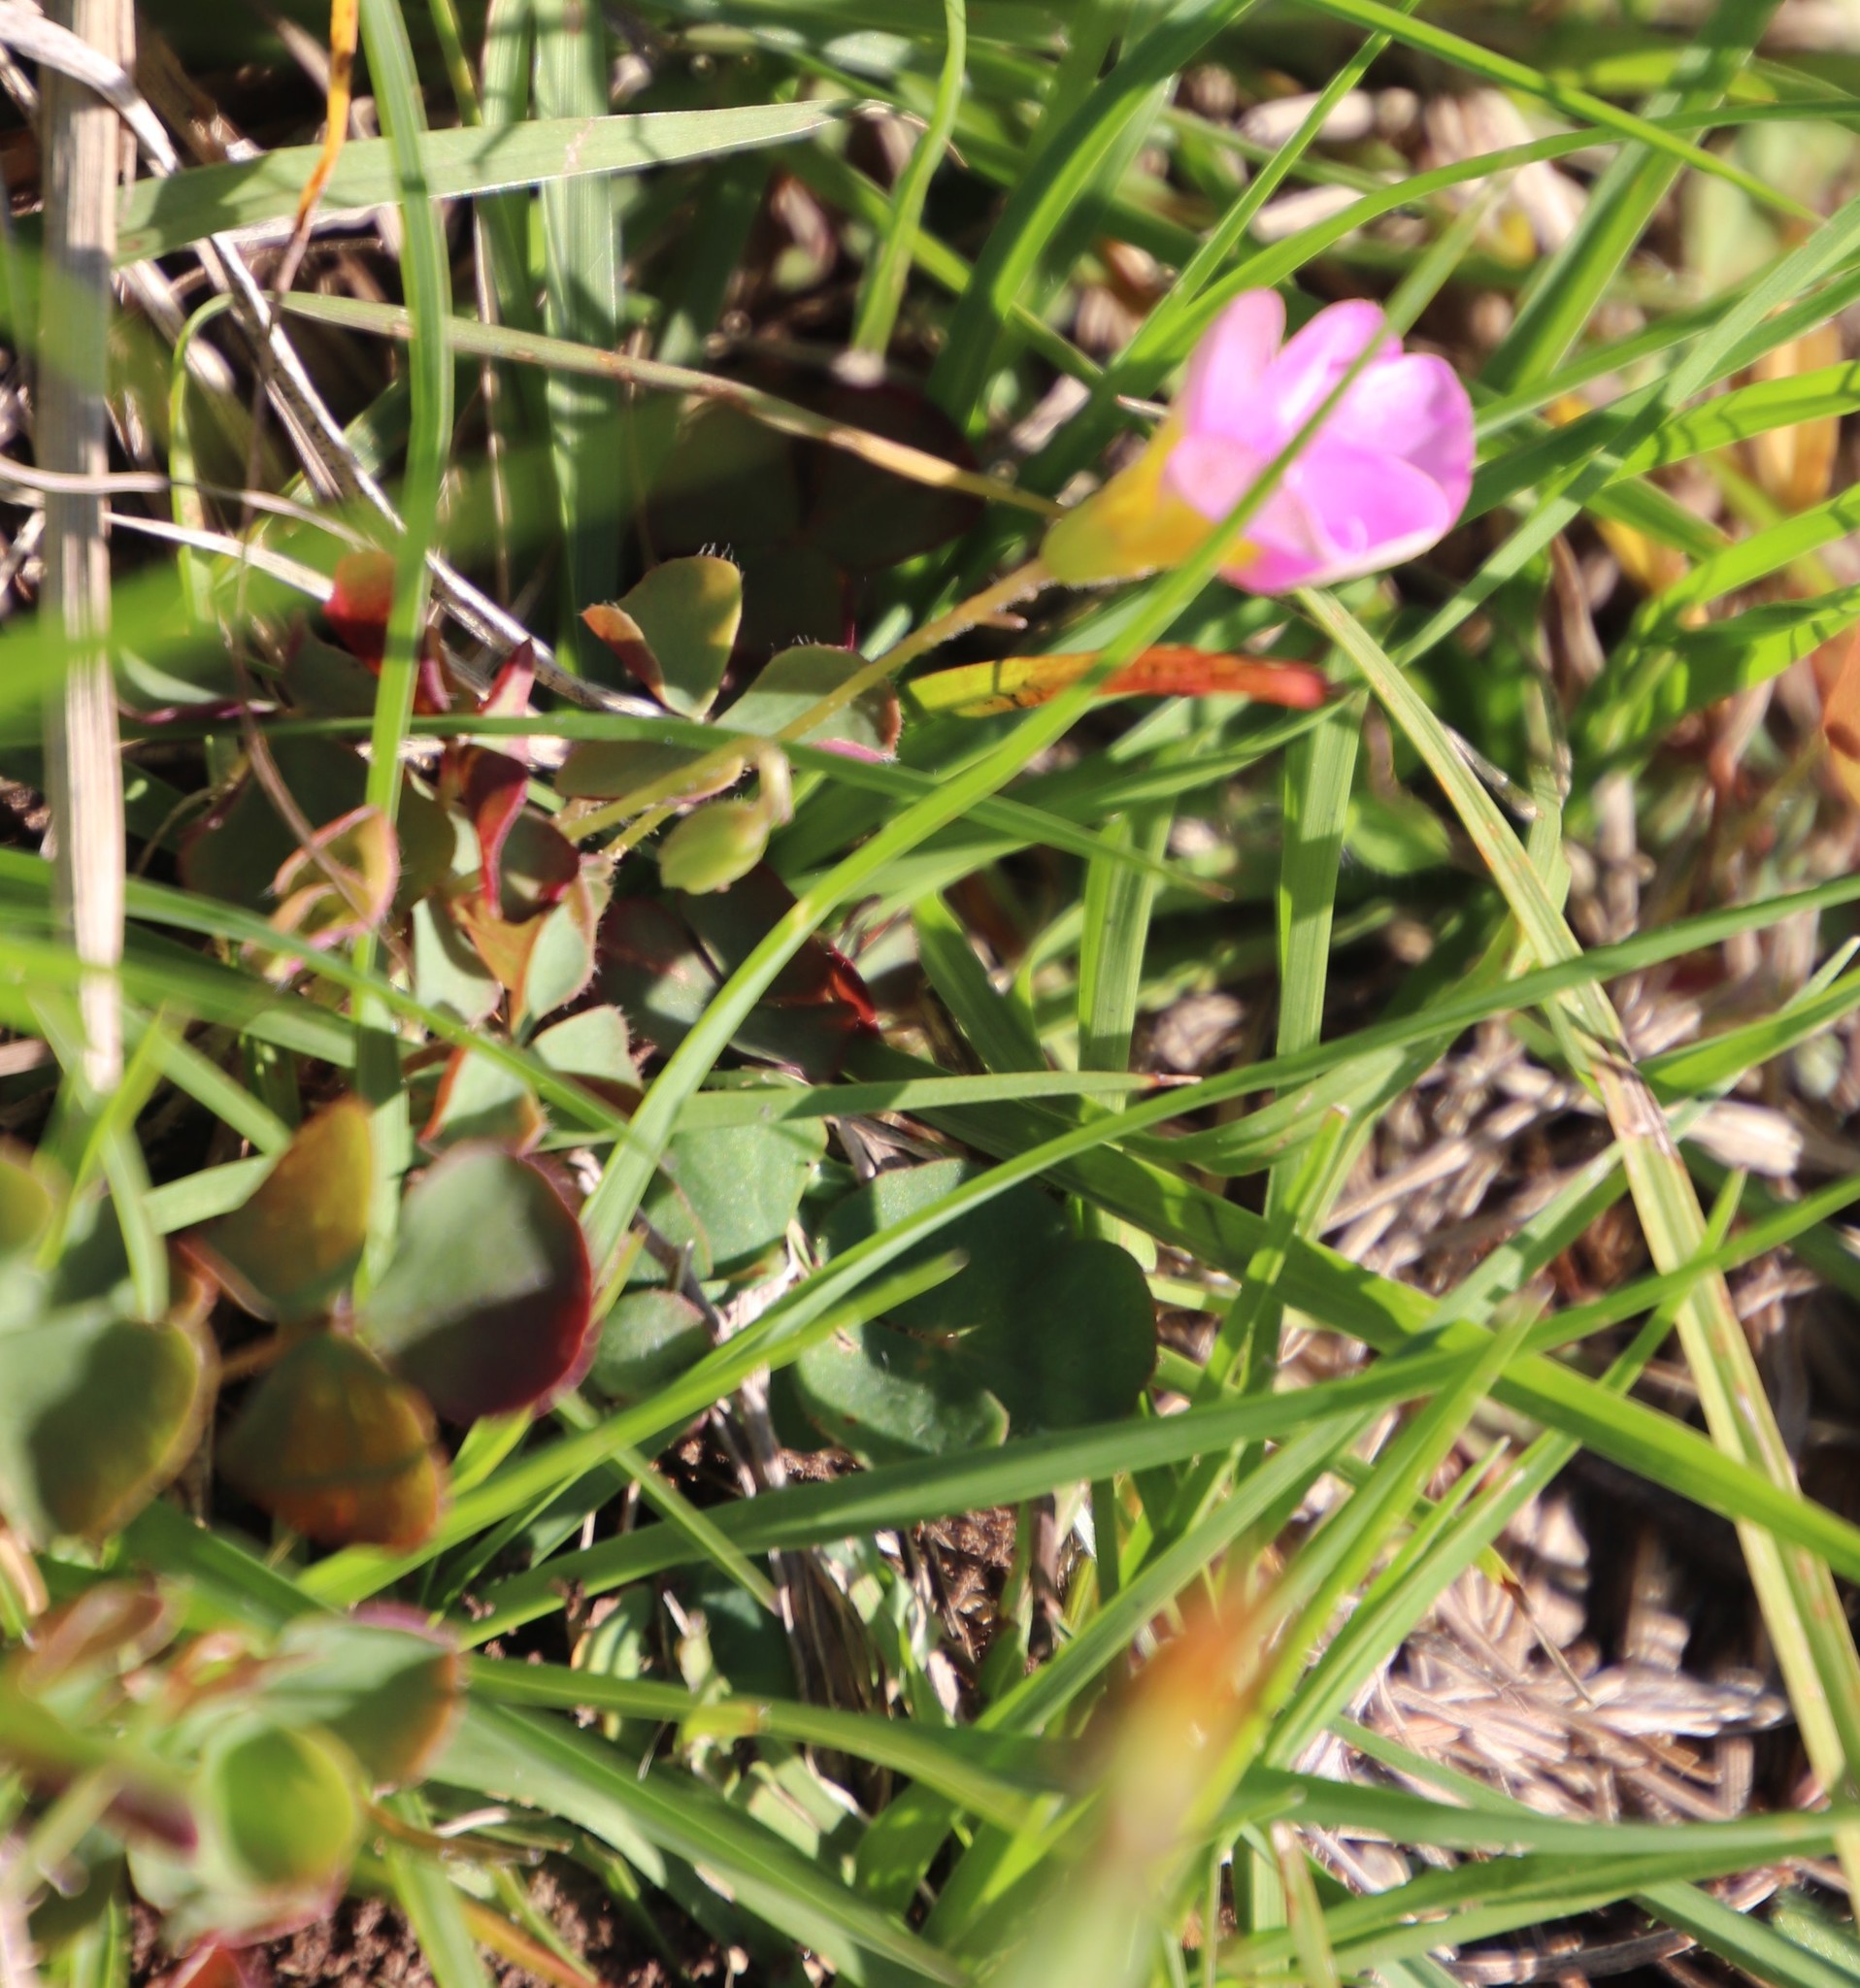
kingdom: Plantae
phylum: Tracheophyta
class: Magnoliopsida
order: Oxalidales
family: Oxalidaceae
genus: Oxalis
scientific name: Oxalis obliquifolia
